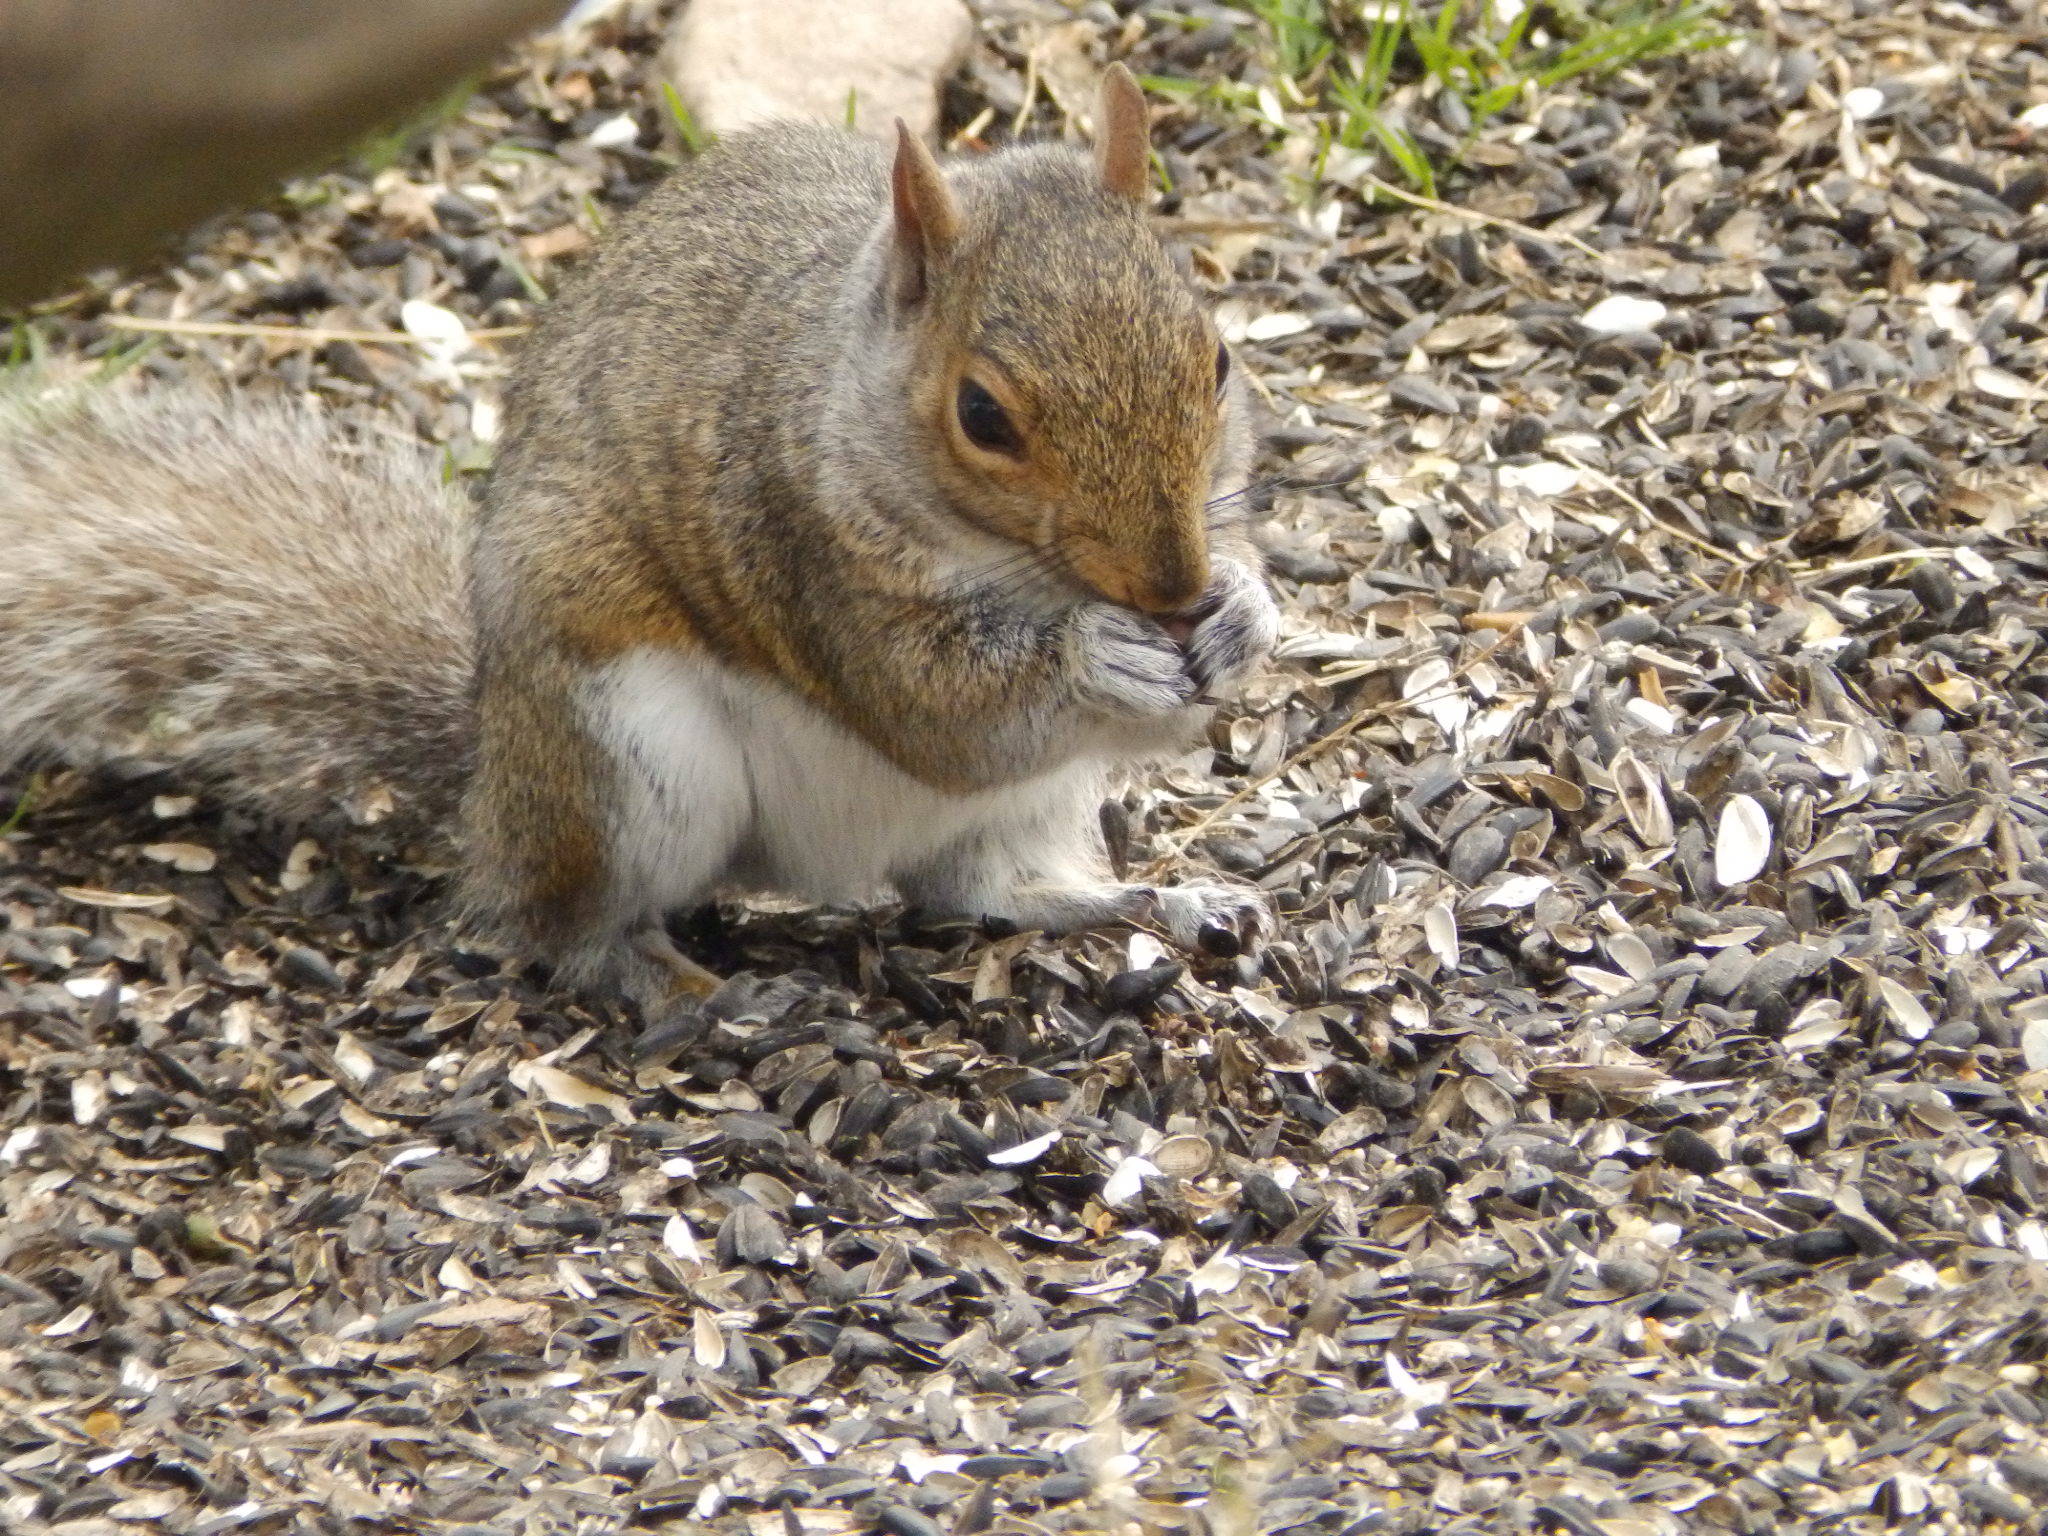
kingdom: Animalia
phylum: Chordata
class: Mammalia
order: Rodentia
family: Sciuridae
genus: Sciurus
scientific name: Sciurus carolinensis
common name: Eastern gray squirrel
